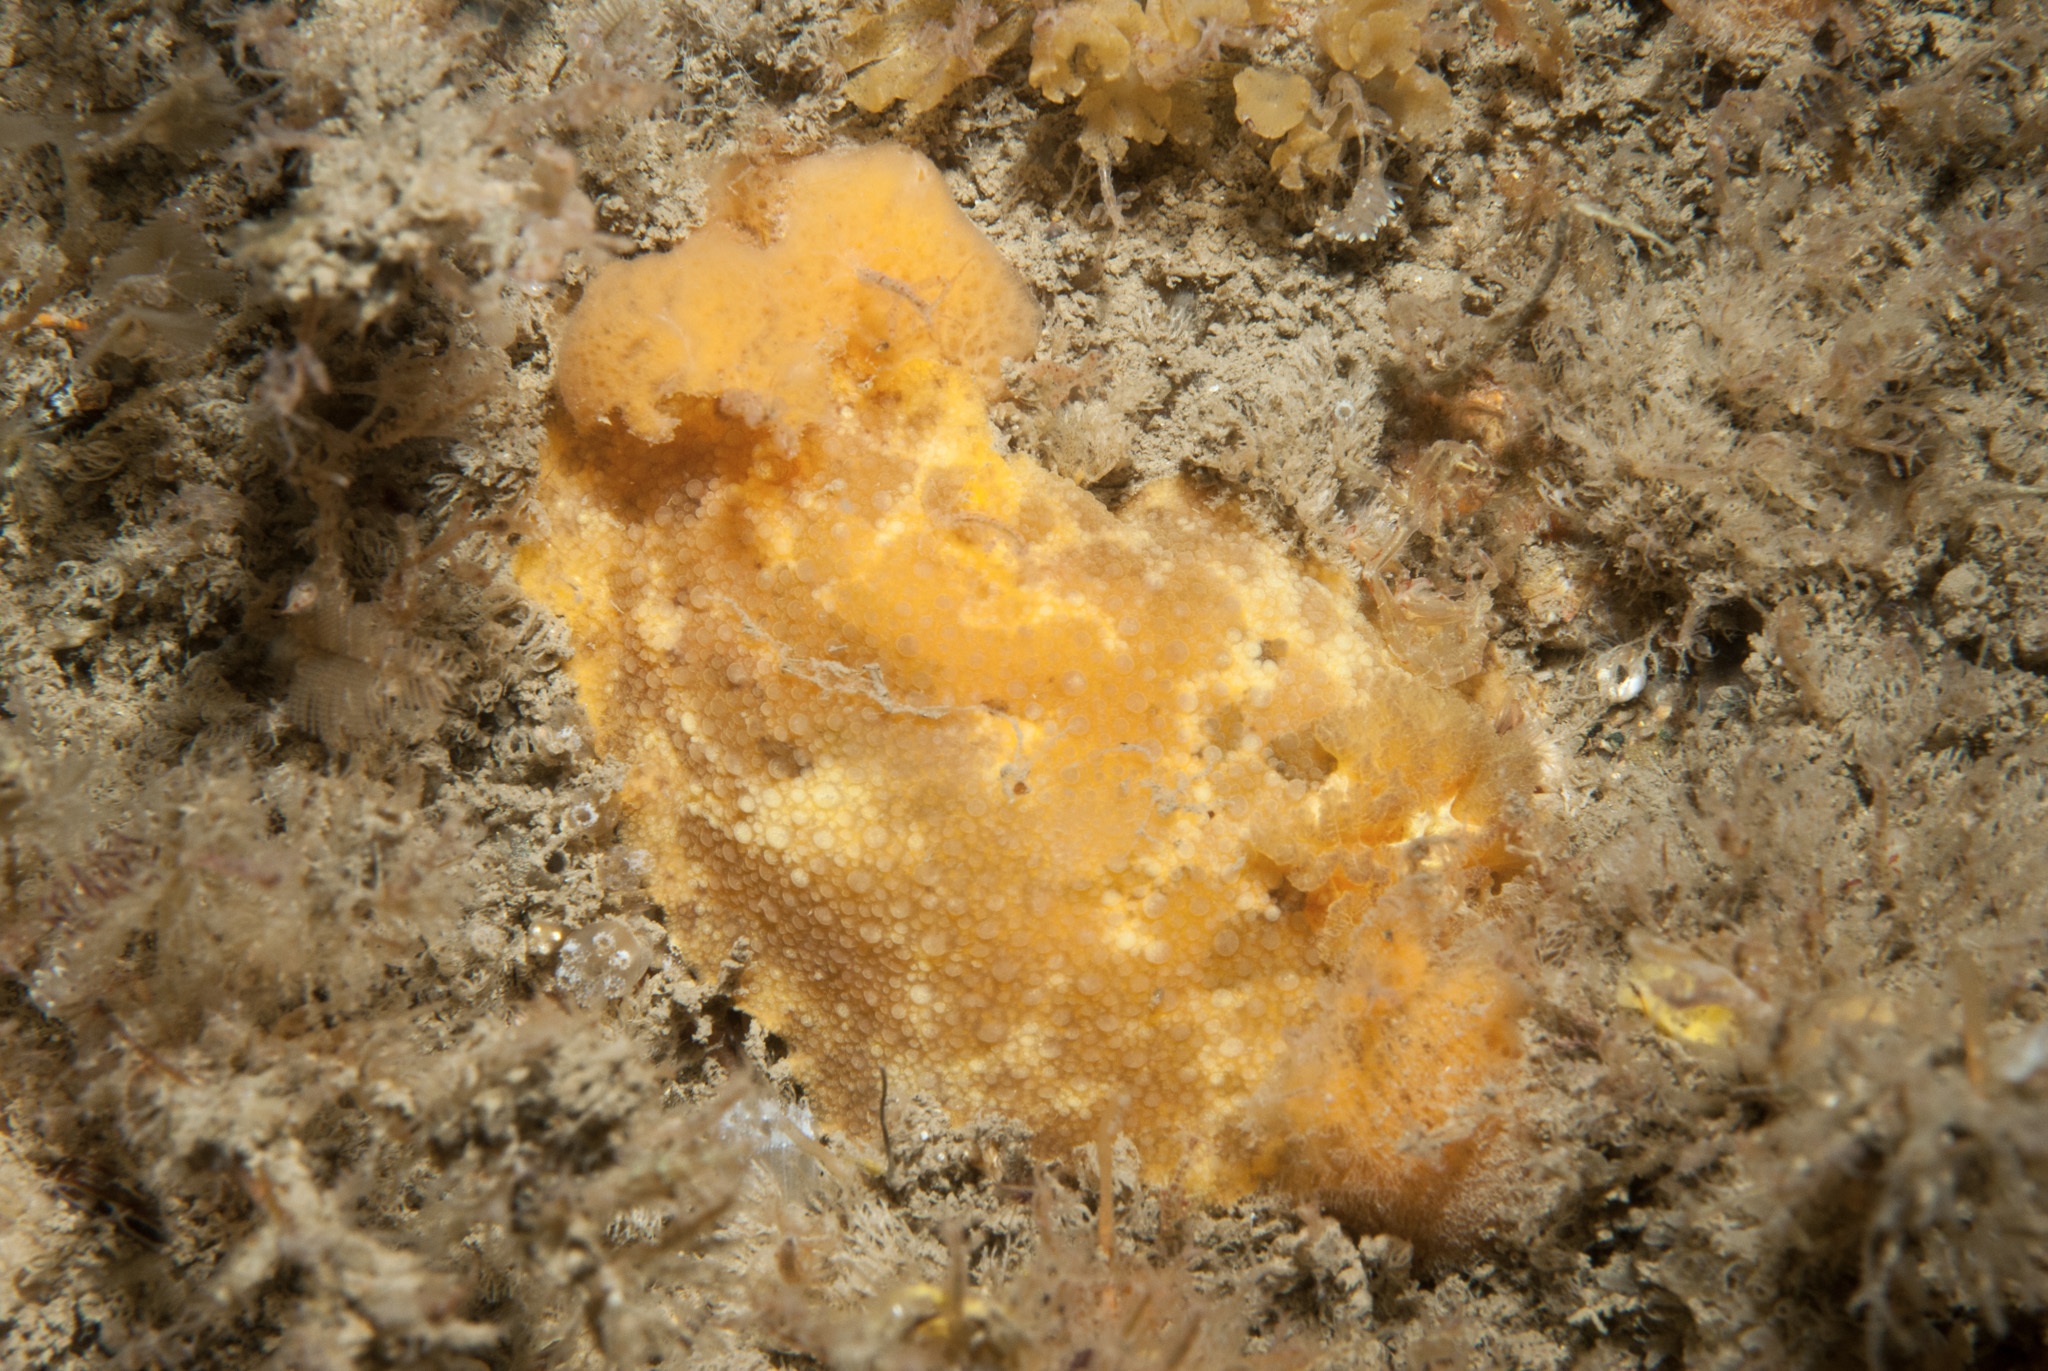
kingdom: Animalia
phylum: Mollusca
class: Gastropoda
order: Nudibranchia
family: Dorididae
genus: Doris
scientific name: Doris pseudoargus
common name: Sea lemon
